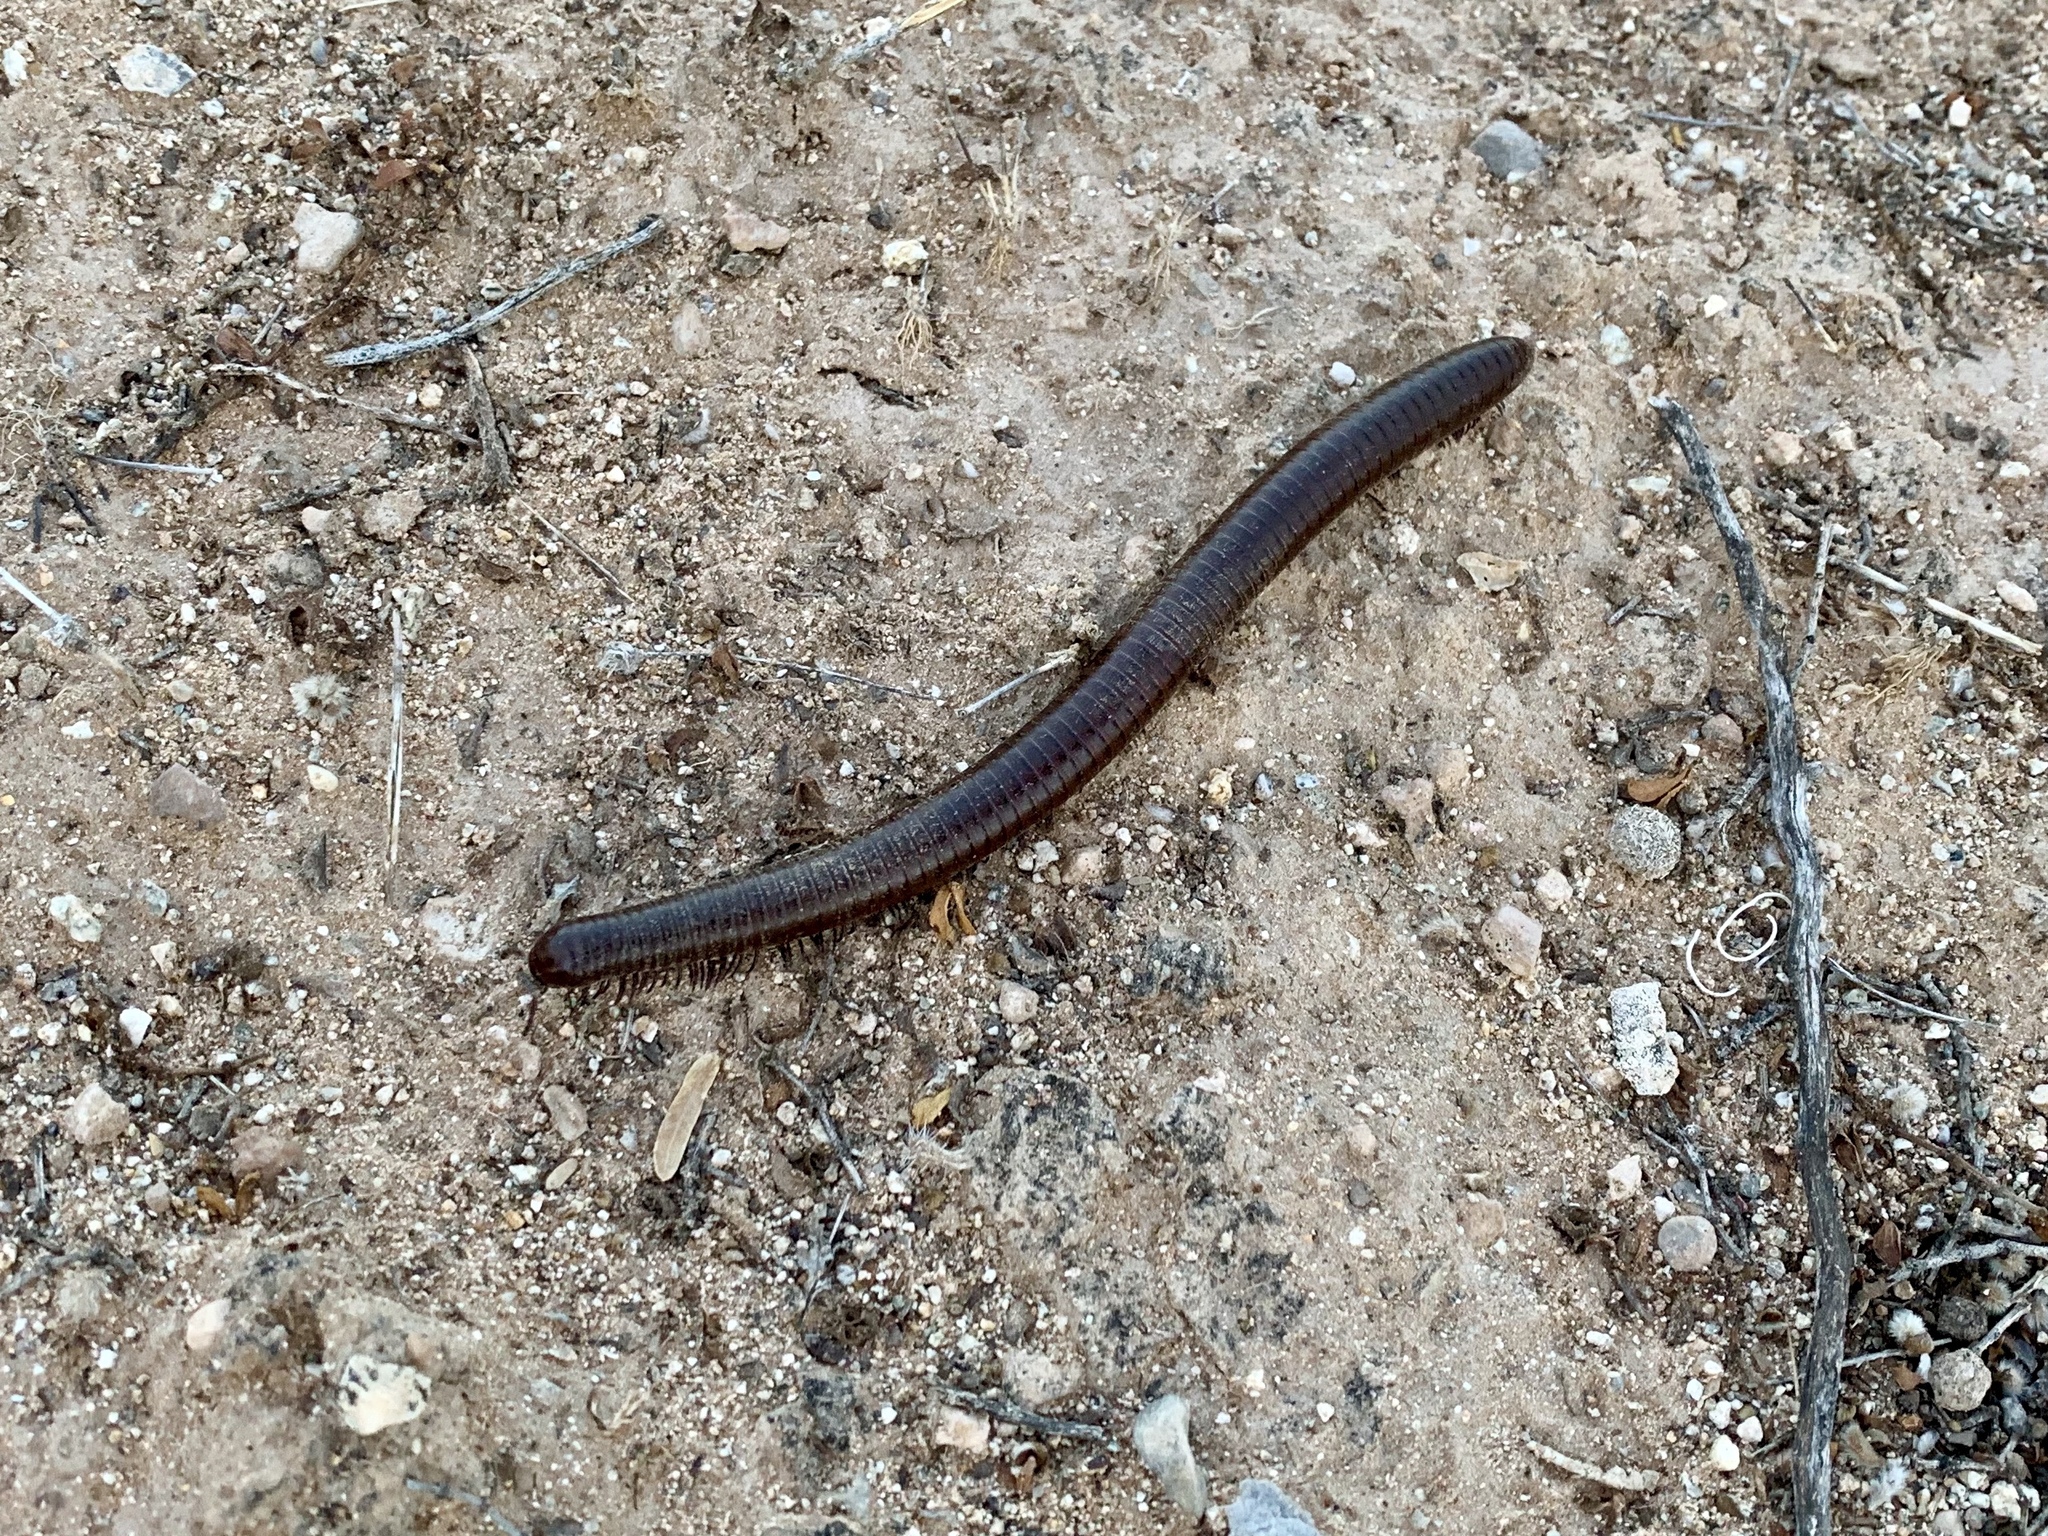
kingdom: Animalia
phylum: Arthropoda
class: Diplopoda
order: Spirostreptida
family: Spirostreptidae
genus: Orthoporus
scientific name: Orthoporus ornatus
